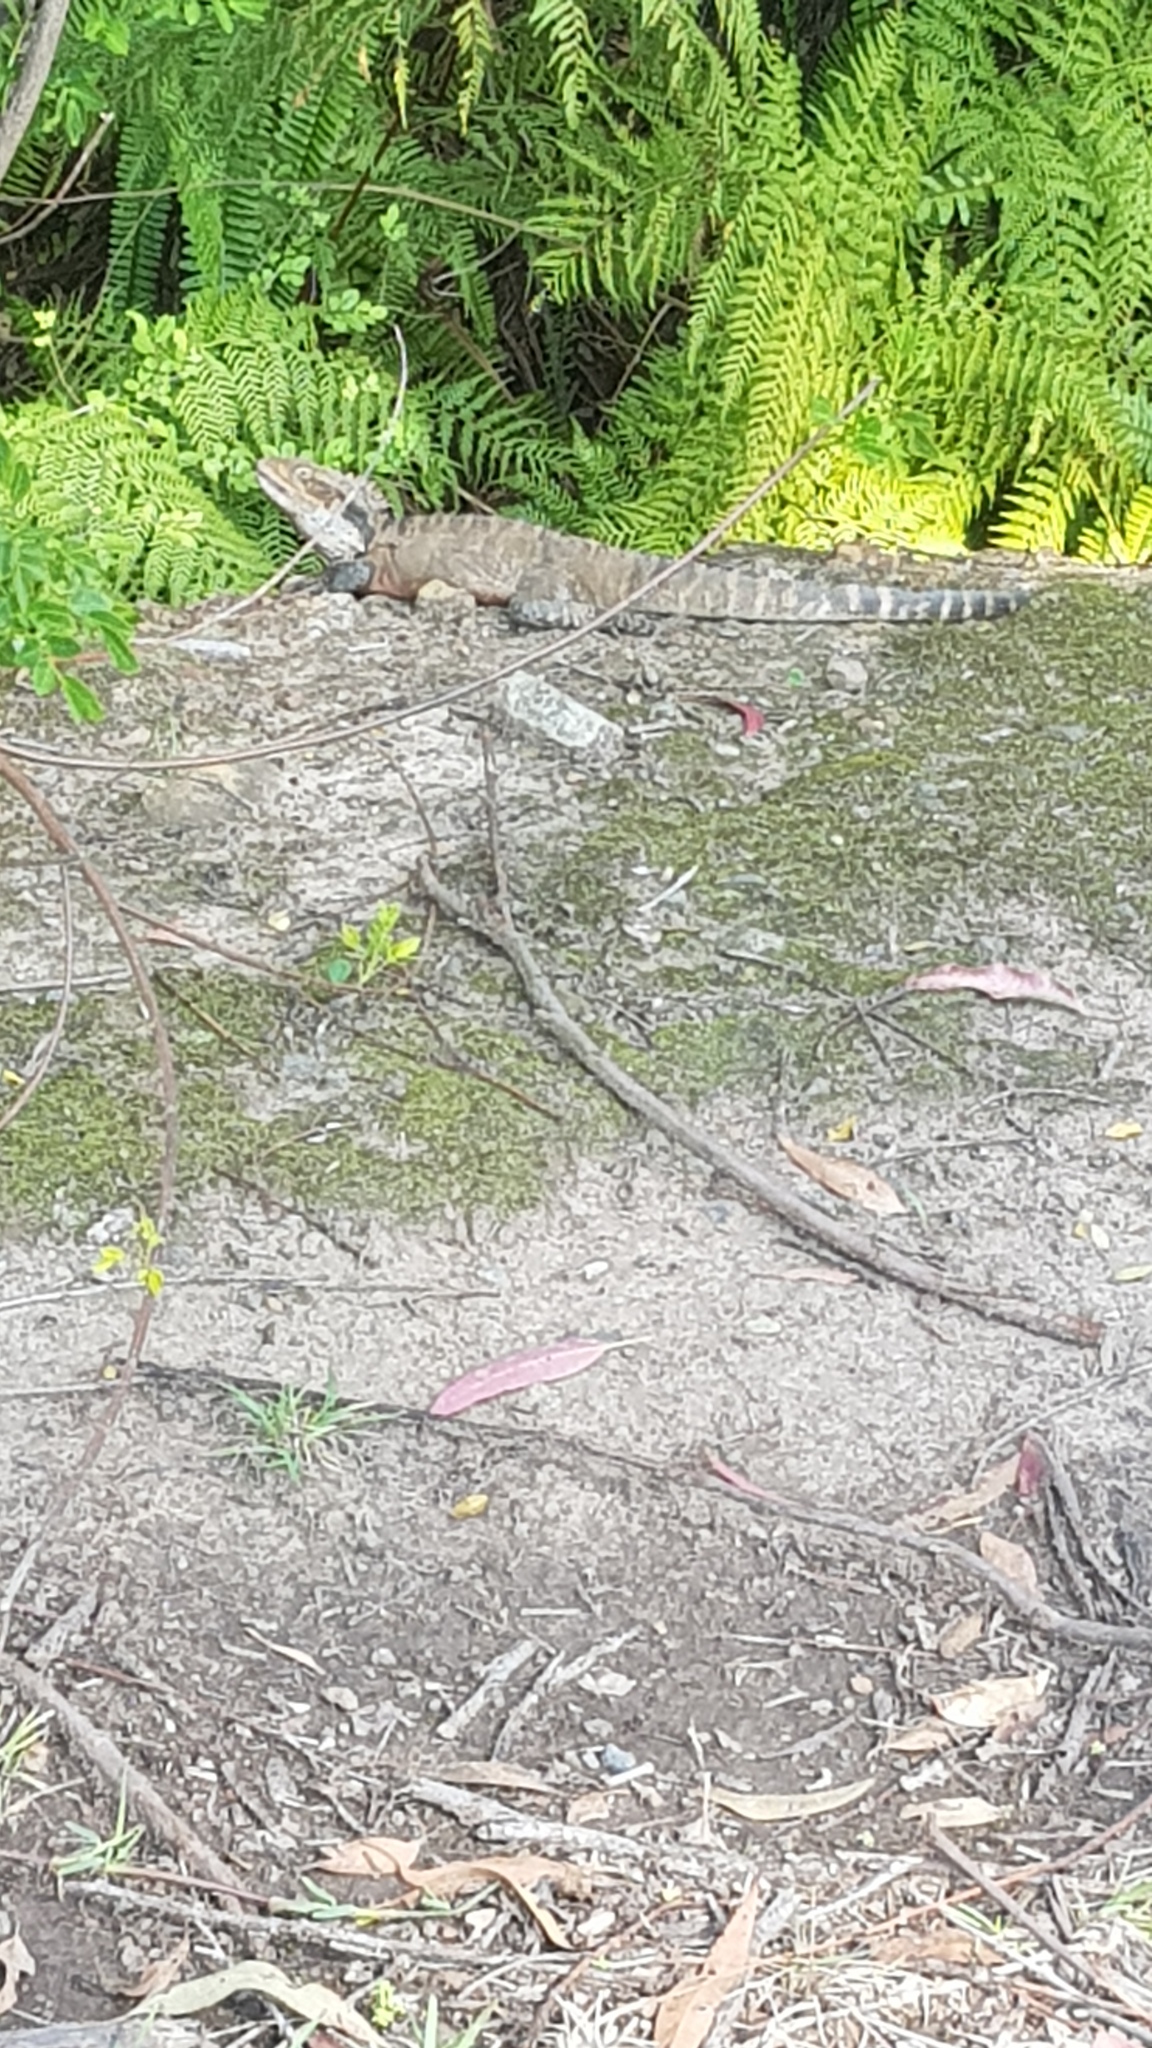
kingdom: Animalia
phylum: Chordata
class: Squamata
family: Agamidae
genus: Intellagama
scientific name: Intellagama lesueurii
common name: Eastern water dragon
